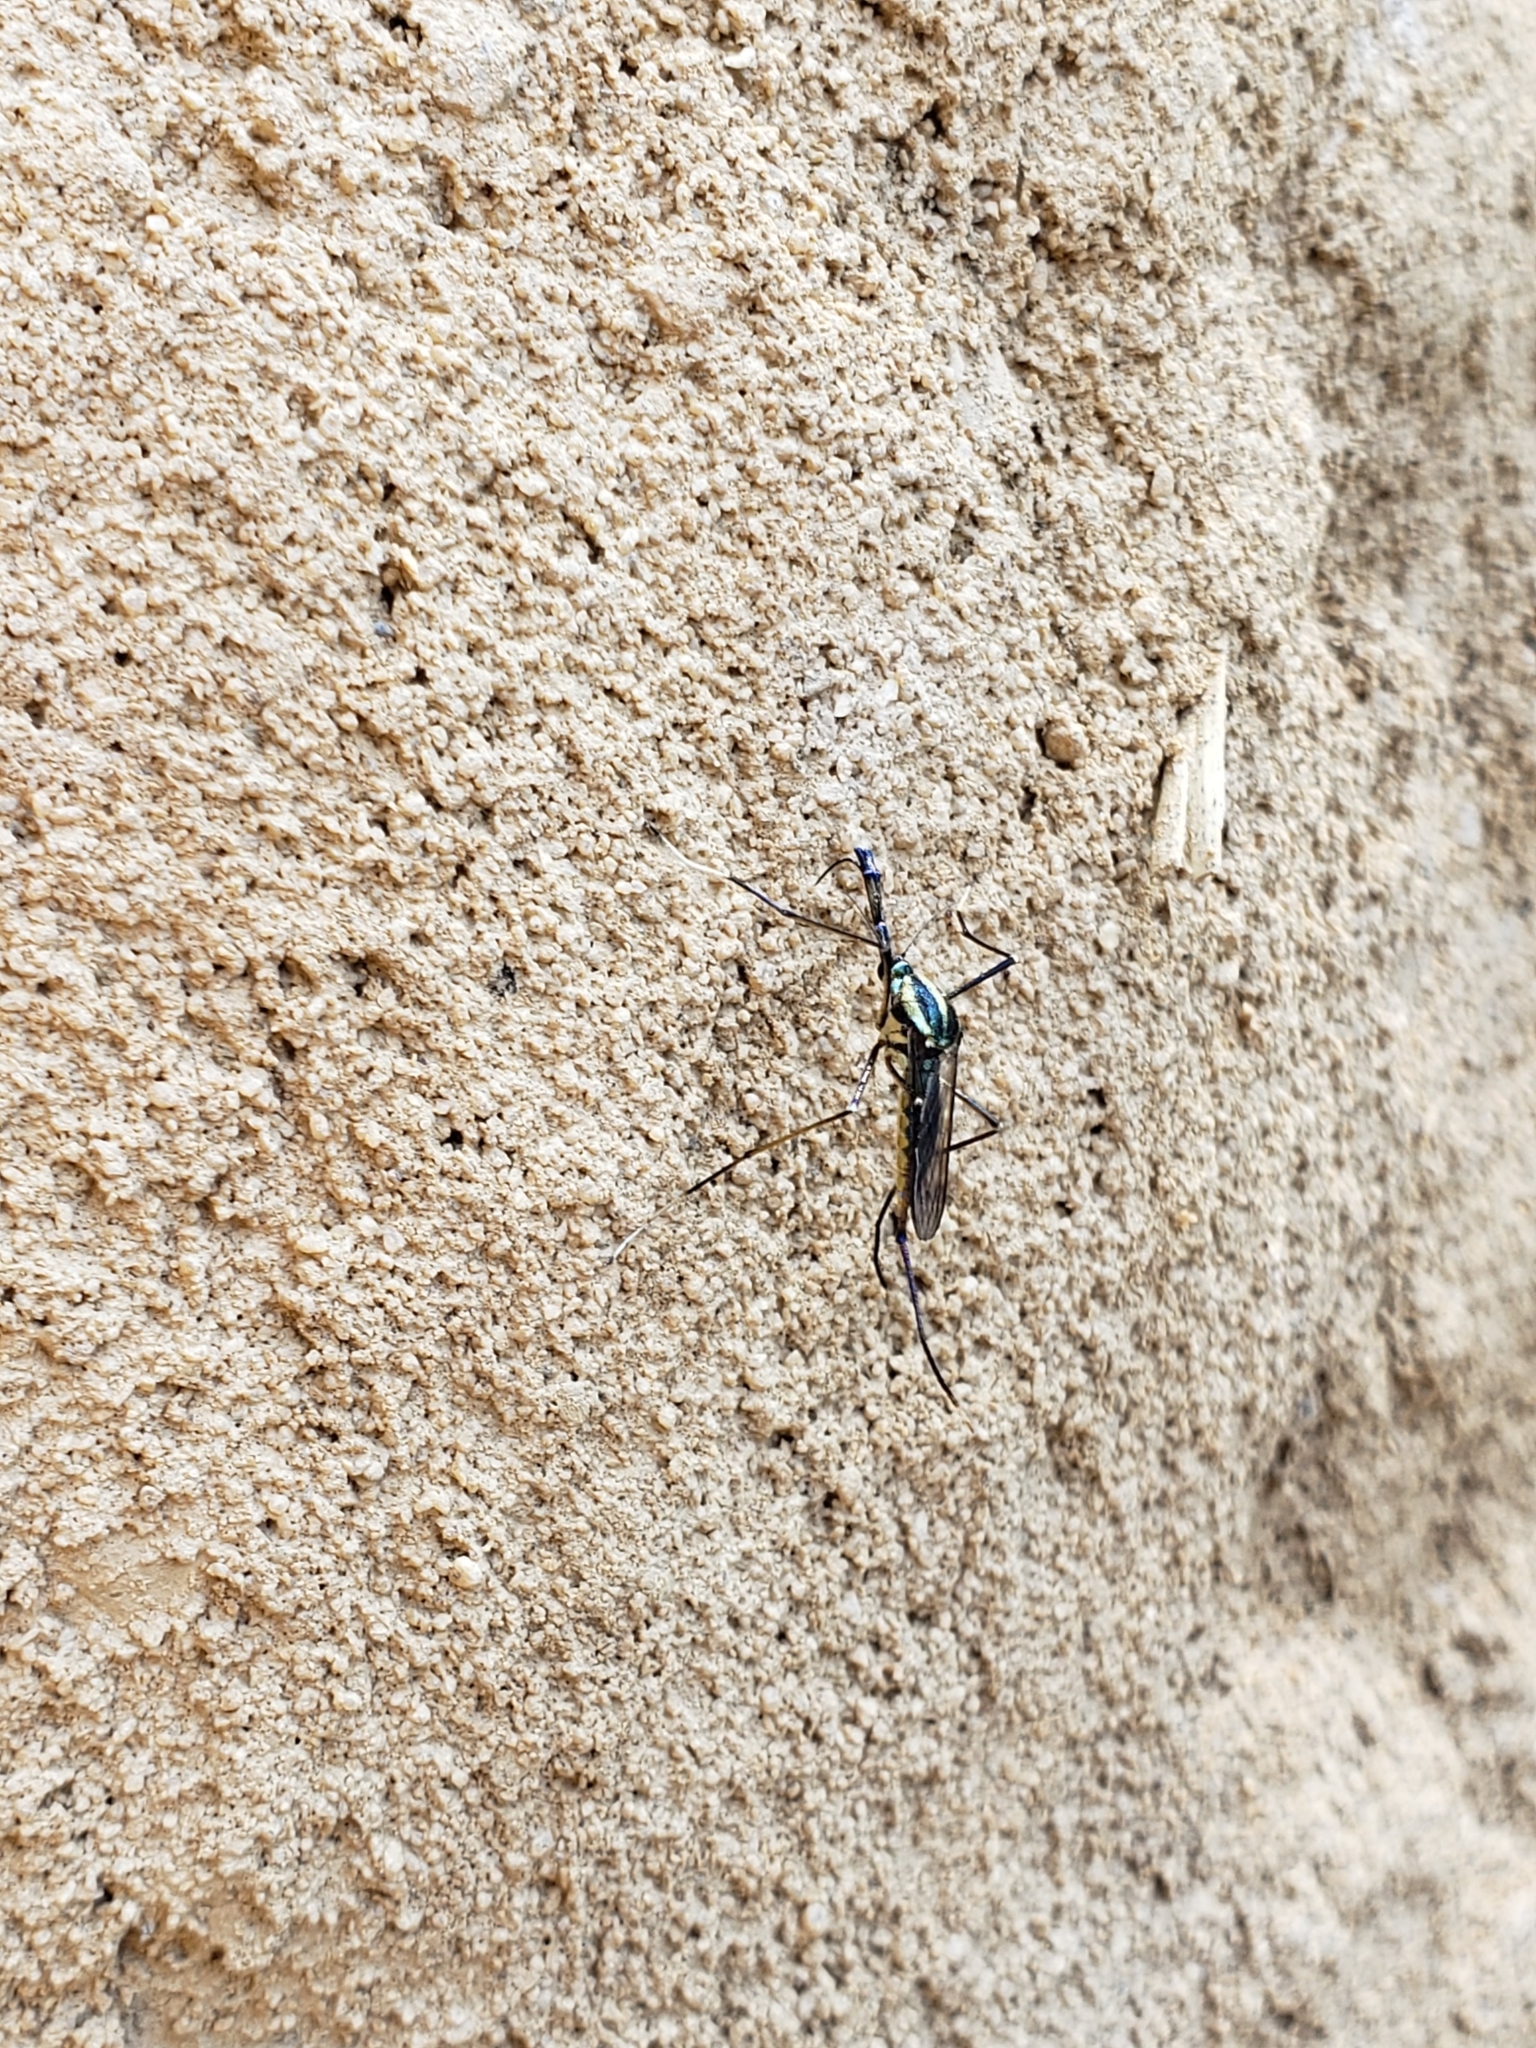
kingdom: Animalia
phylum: Arthropoda
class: Insecta
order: Diptera
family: Culicidae
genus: Toxorhynchites
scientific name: Toxorhynchites rutilus
